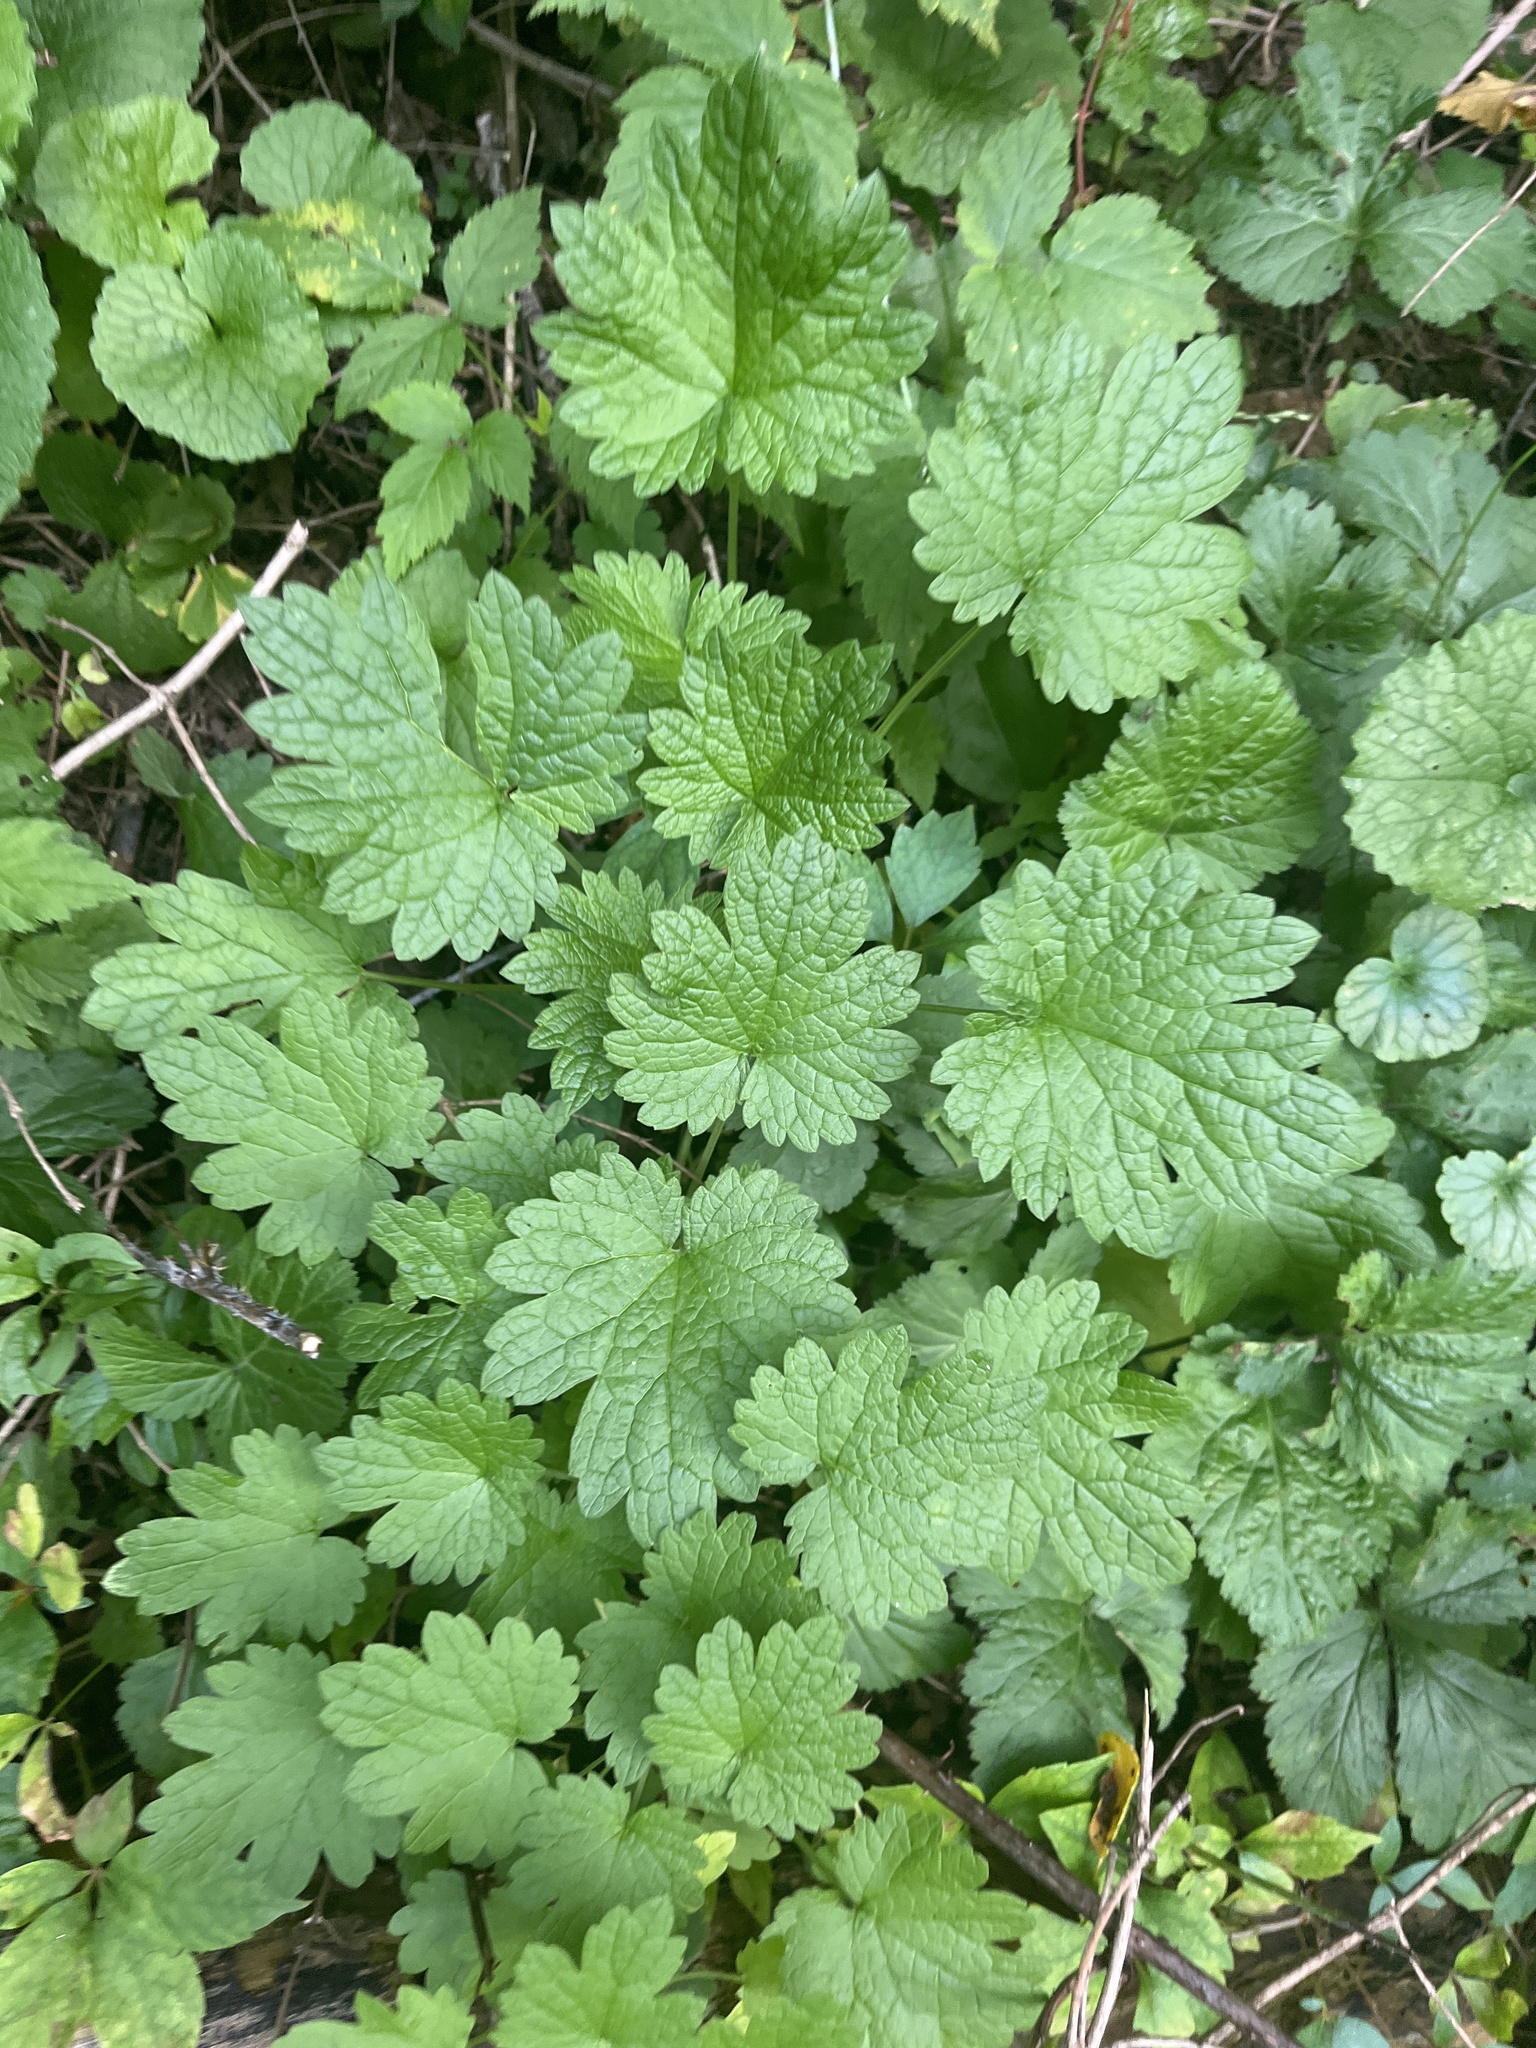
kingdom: Plantae
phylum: Tracheophyta
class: Magnoliopsida
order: Lamiales
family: Lamiaceae
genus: Leonurus
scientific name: Leonurus cardiaca
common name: Motherwort
